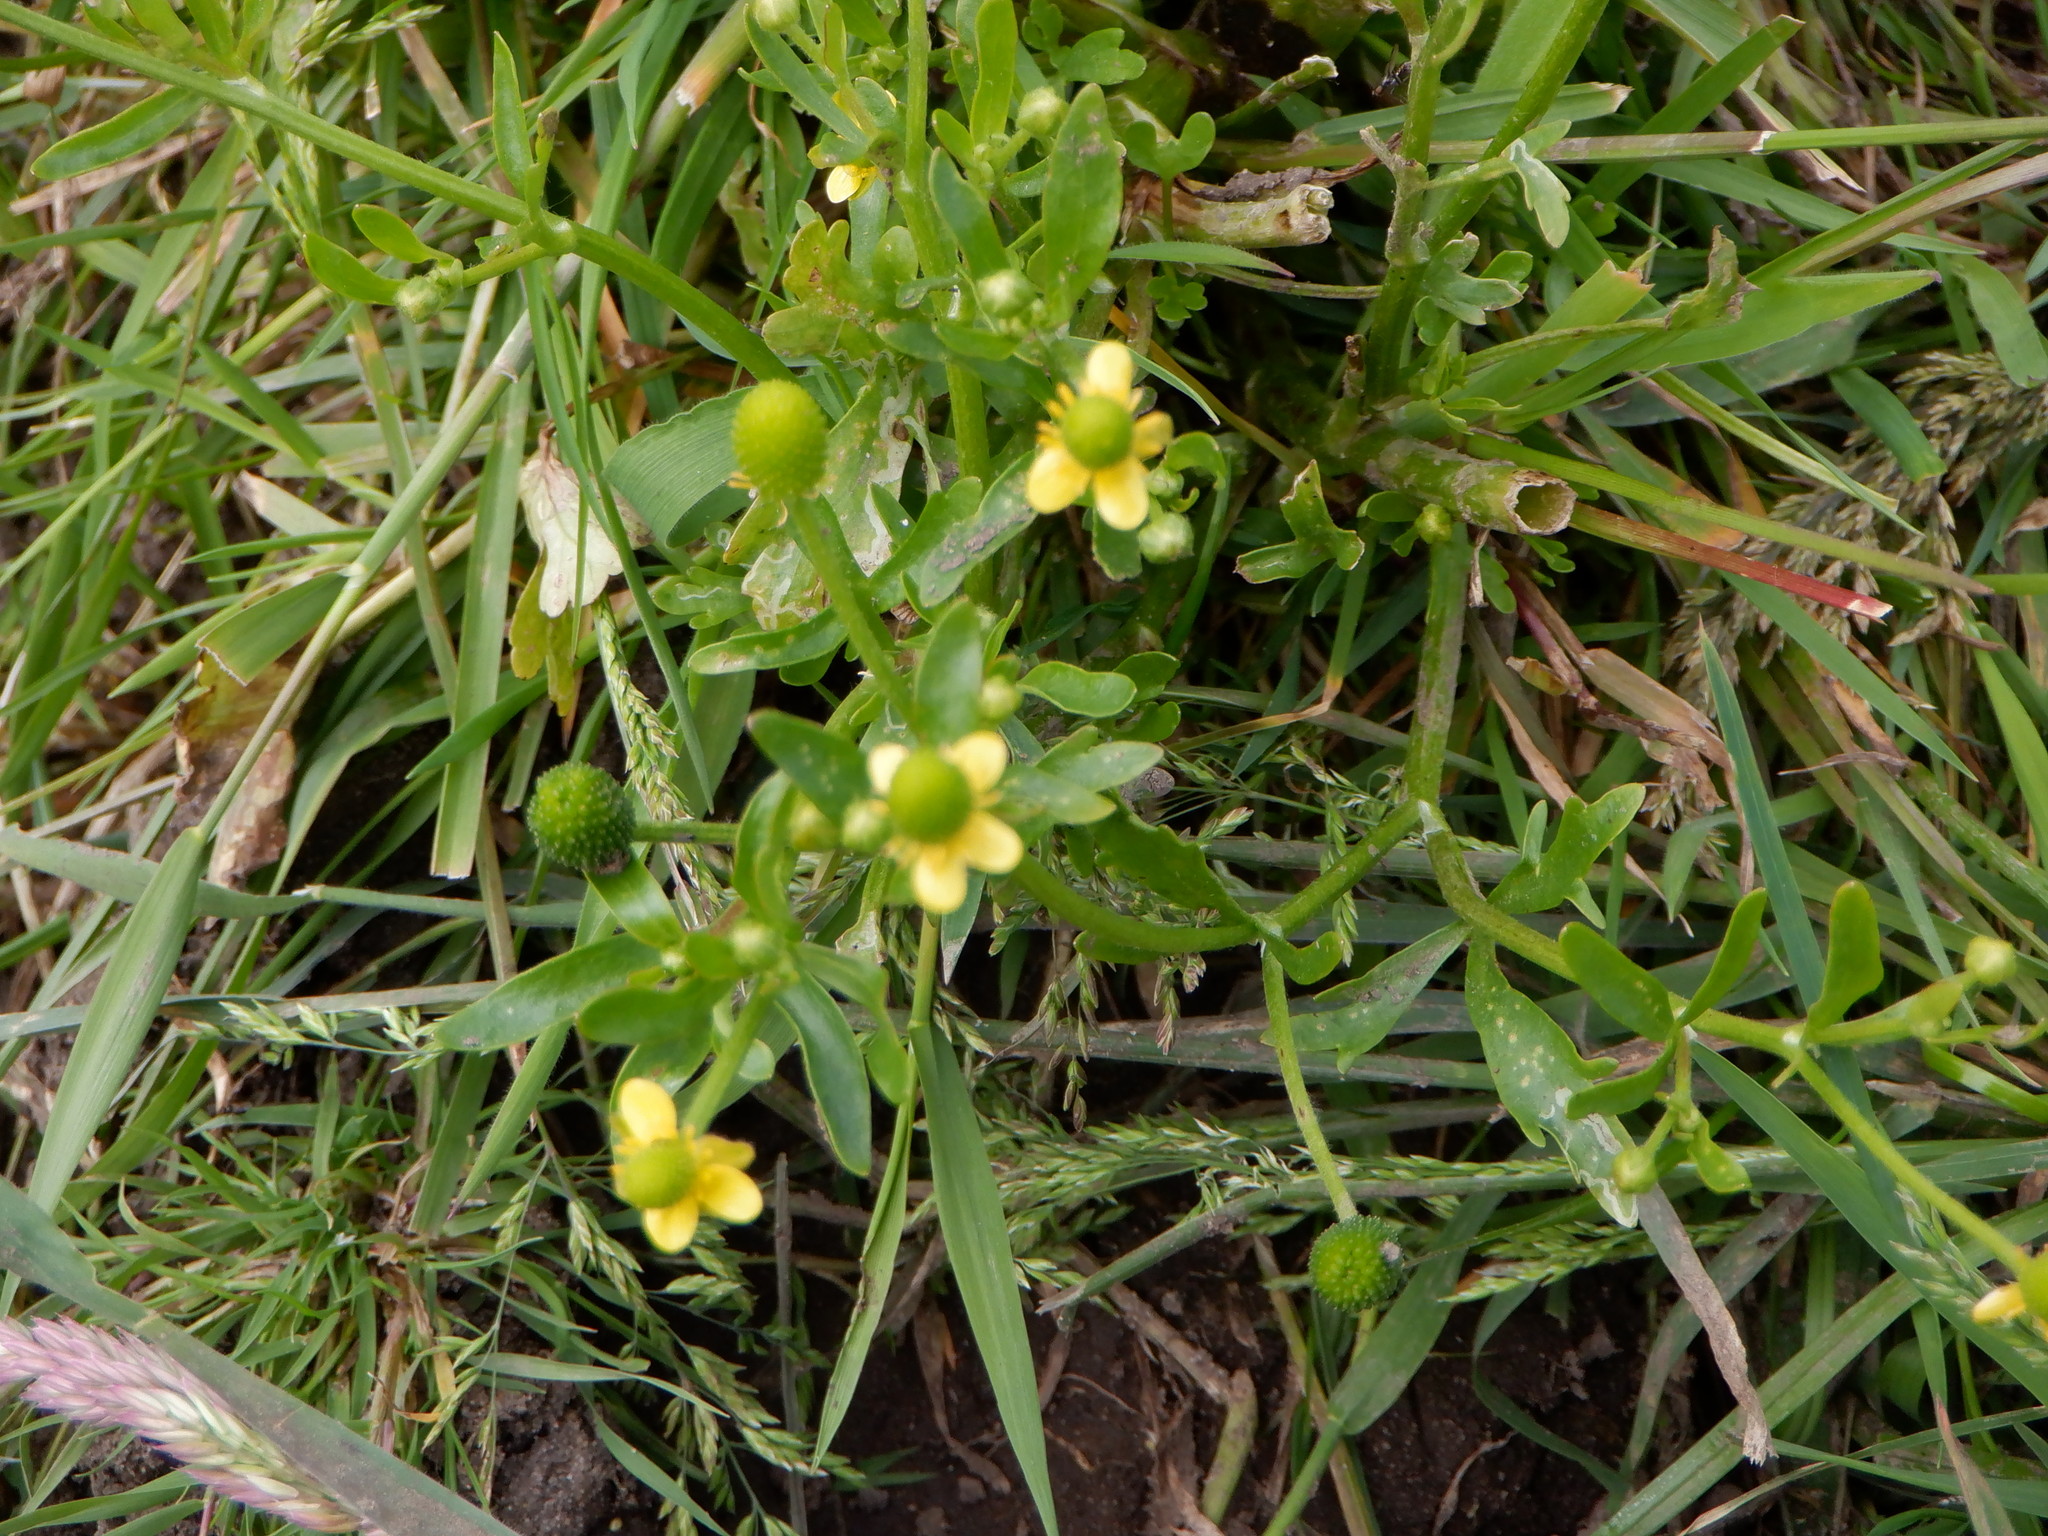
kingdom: Plantae
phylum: Tracheophyta
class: Magnoliopsida
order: Ranunculales
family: Ranunculaceae
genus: Ranunculus
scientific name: Ranunculus sceleratus
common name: Celery-leaved buttercup
